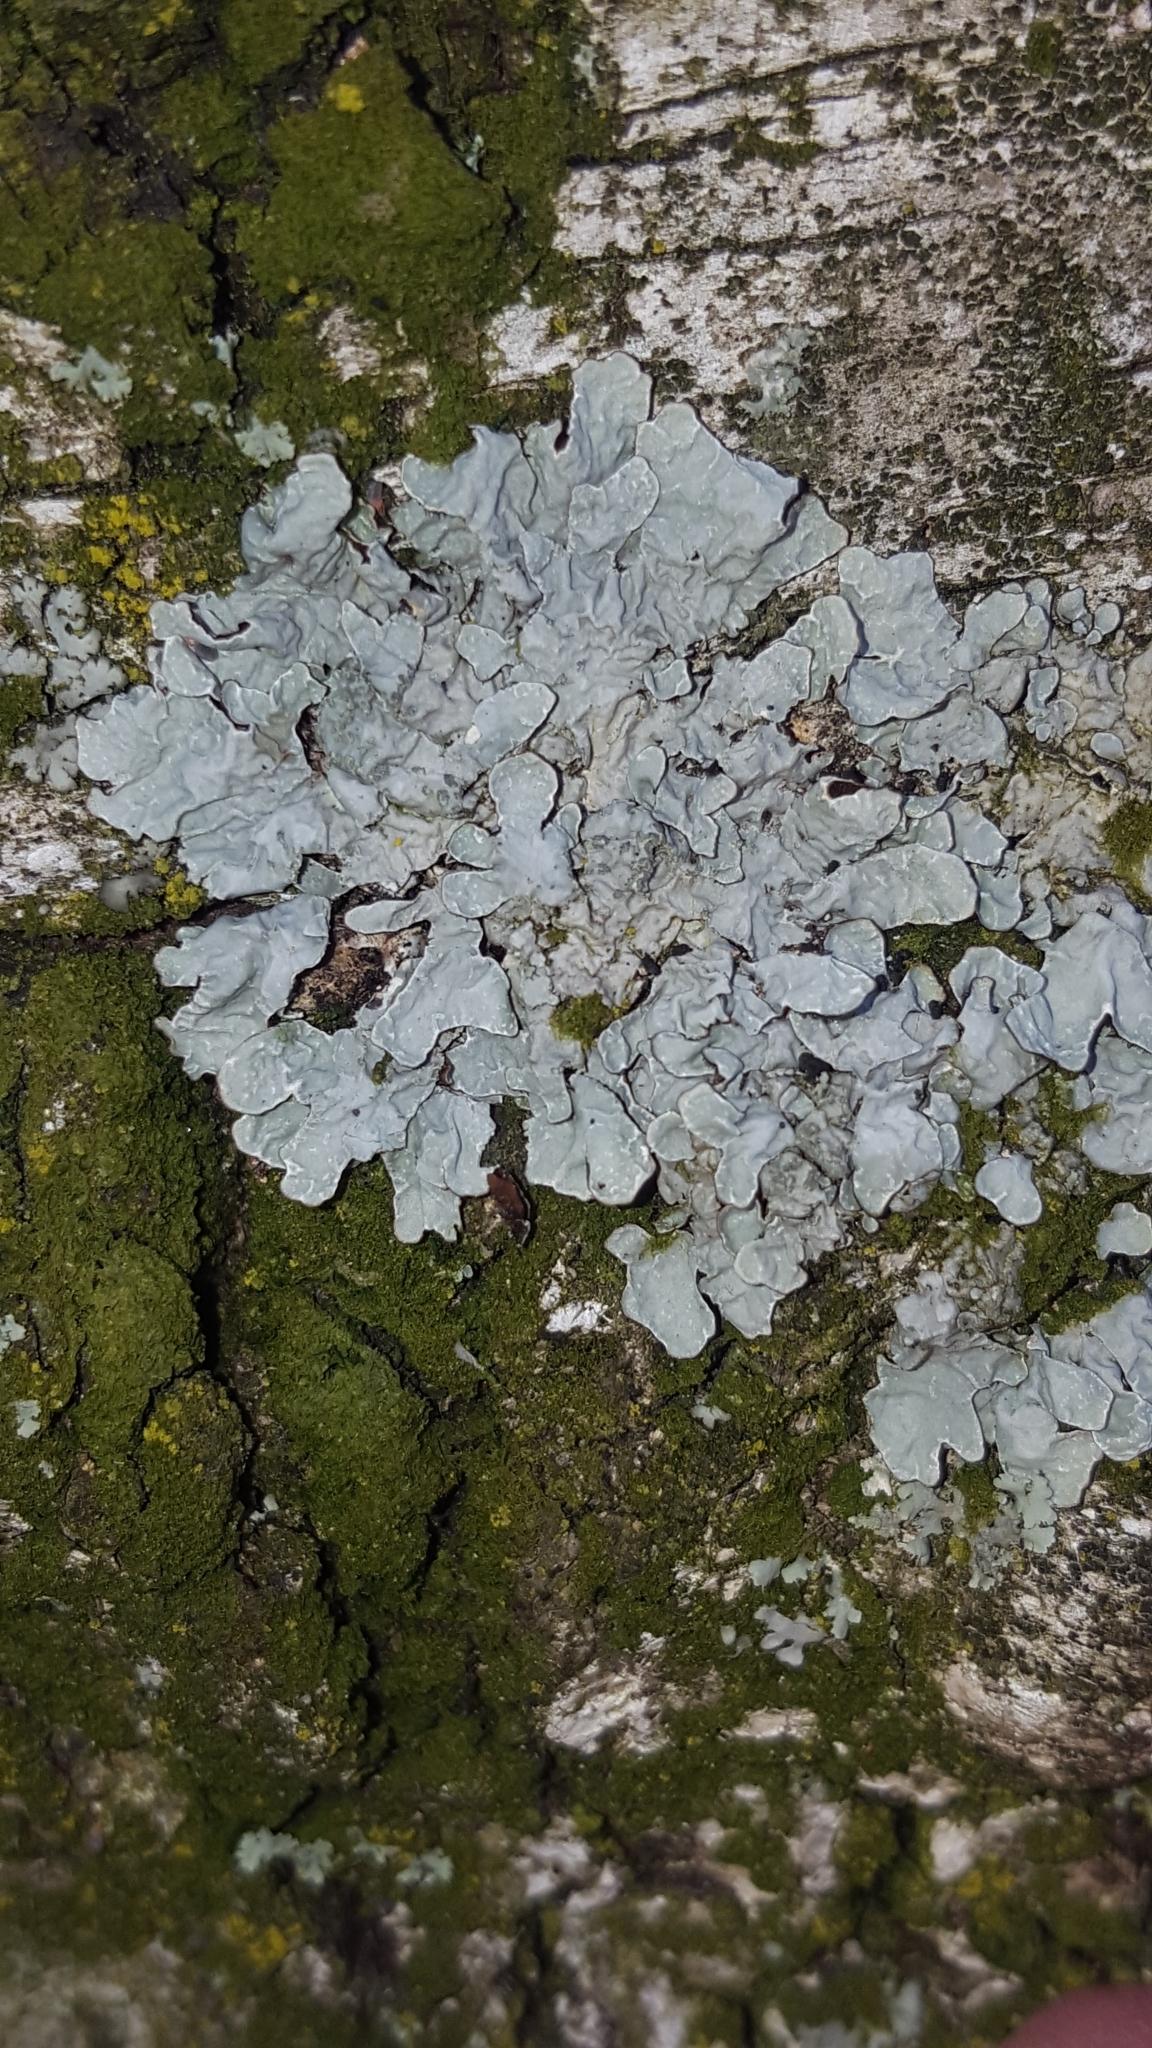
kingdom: Fungi
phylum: Ascomycota
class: Lecanoromycetes
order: Lecanorales
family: Parmeliaceae
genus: Parmelia
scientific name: Parmelia sulcata
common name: Netted shield lichen
